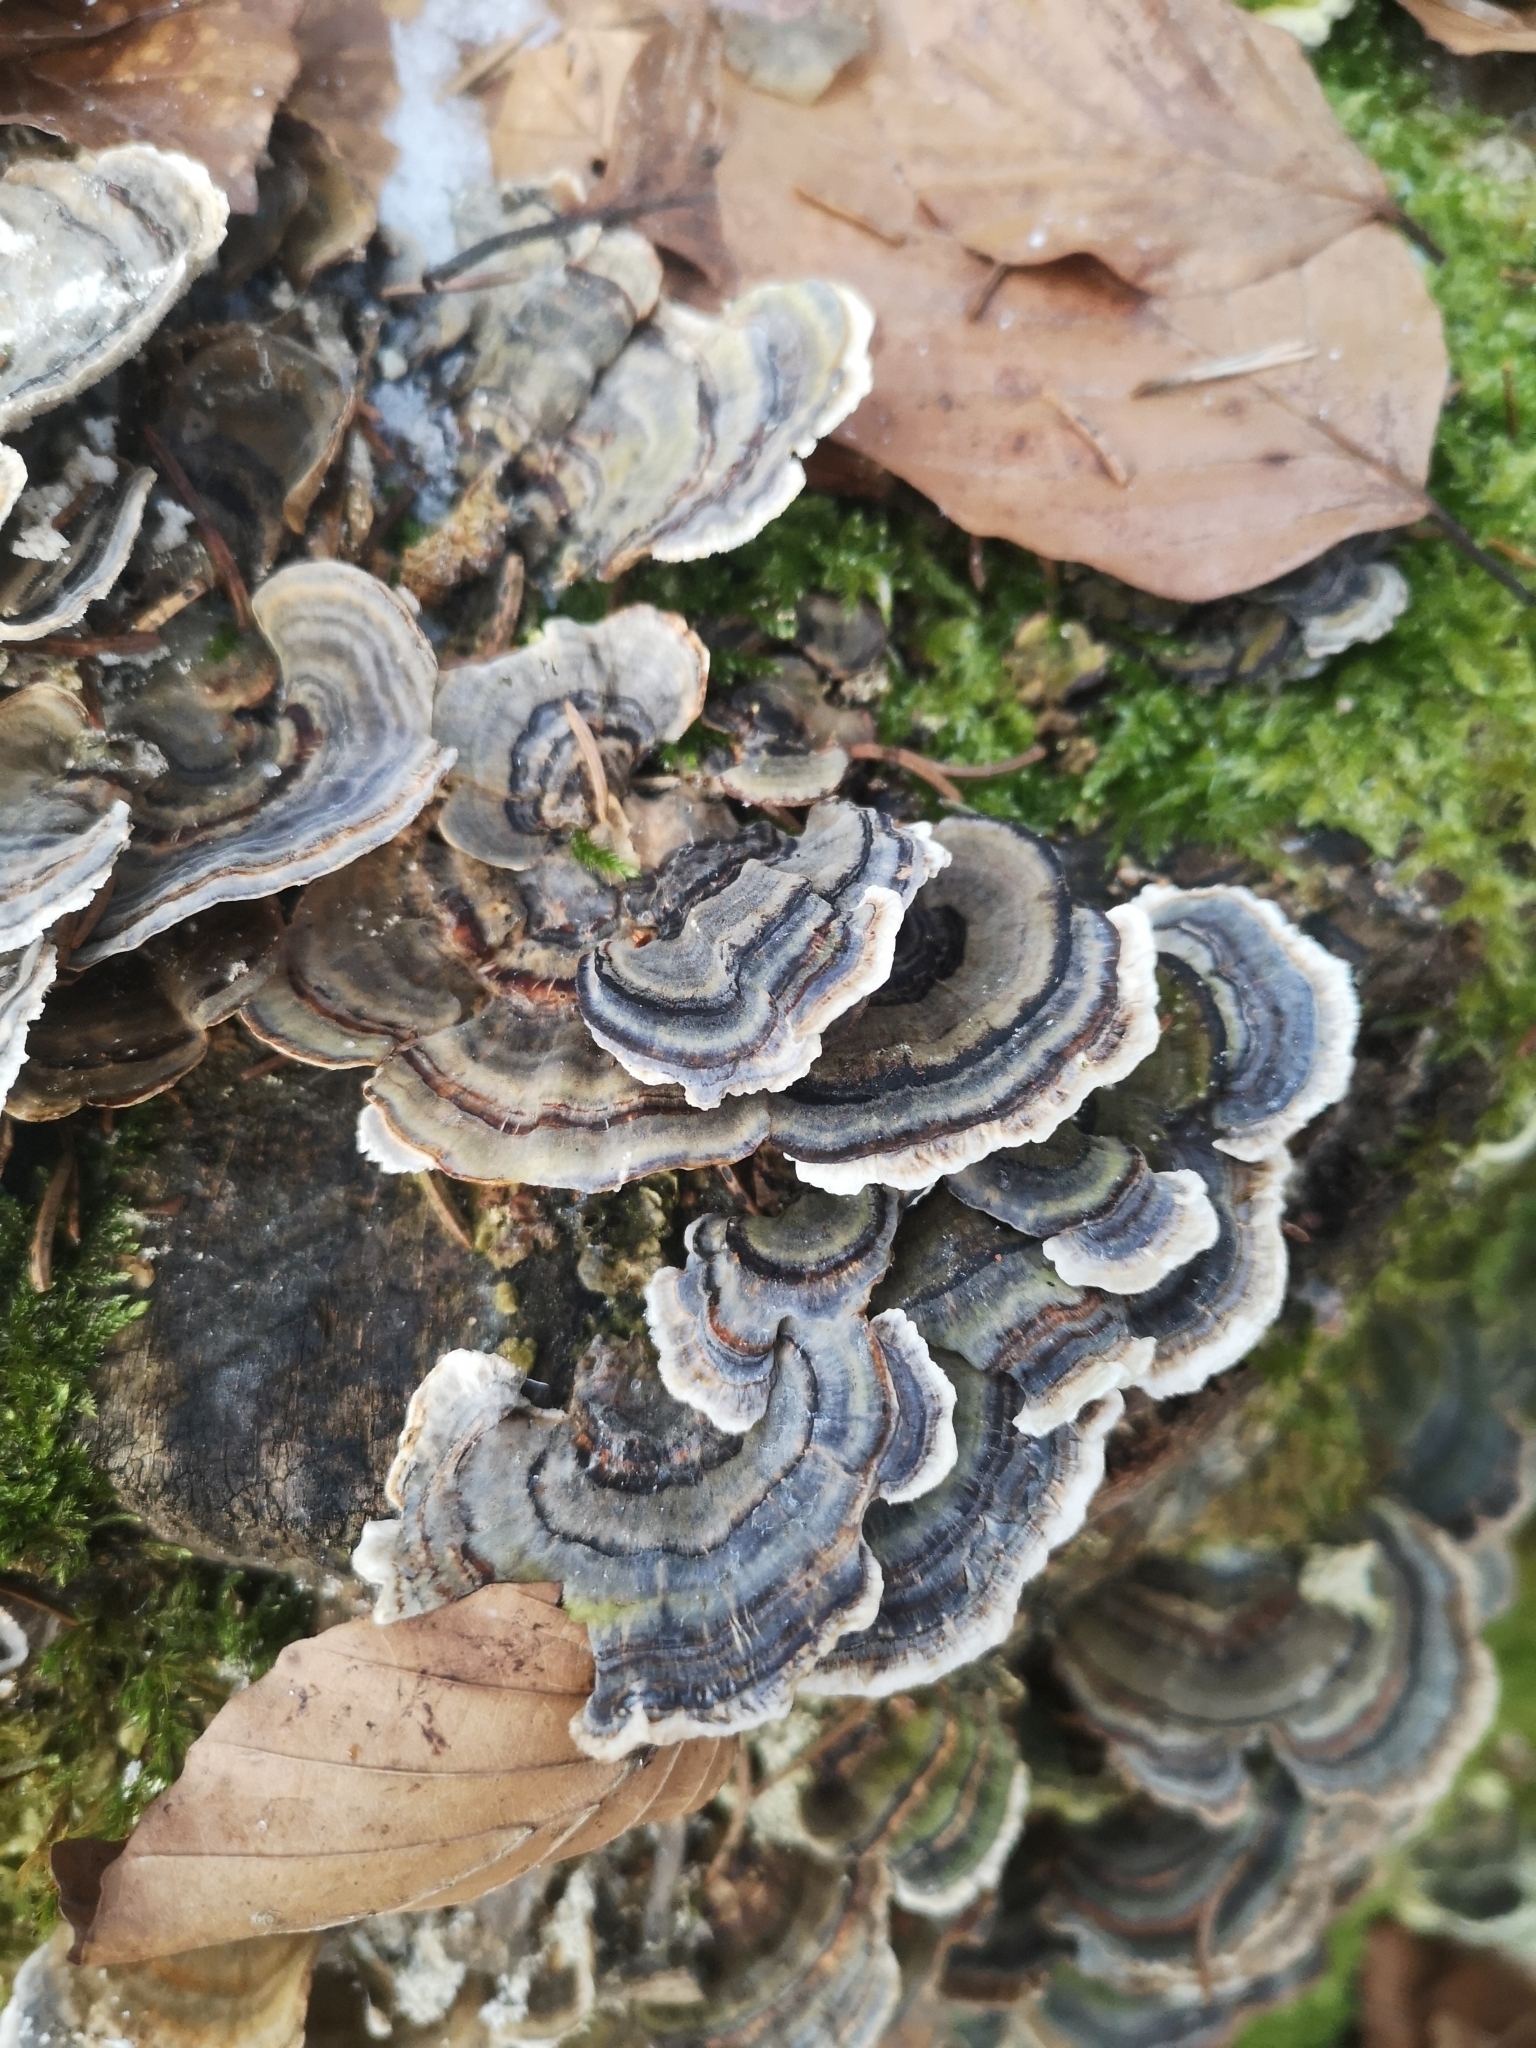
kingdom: Fungi
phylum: Basidiomycota
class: Agaricomycetes
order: Polyporales
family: Polyporaceae
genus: Trametes
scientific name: Trametes versicolor
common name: Turkeytail
